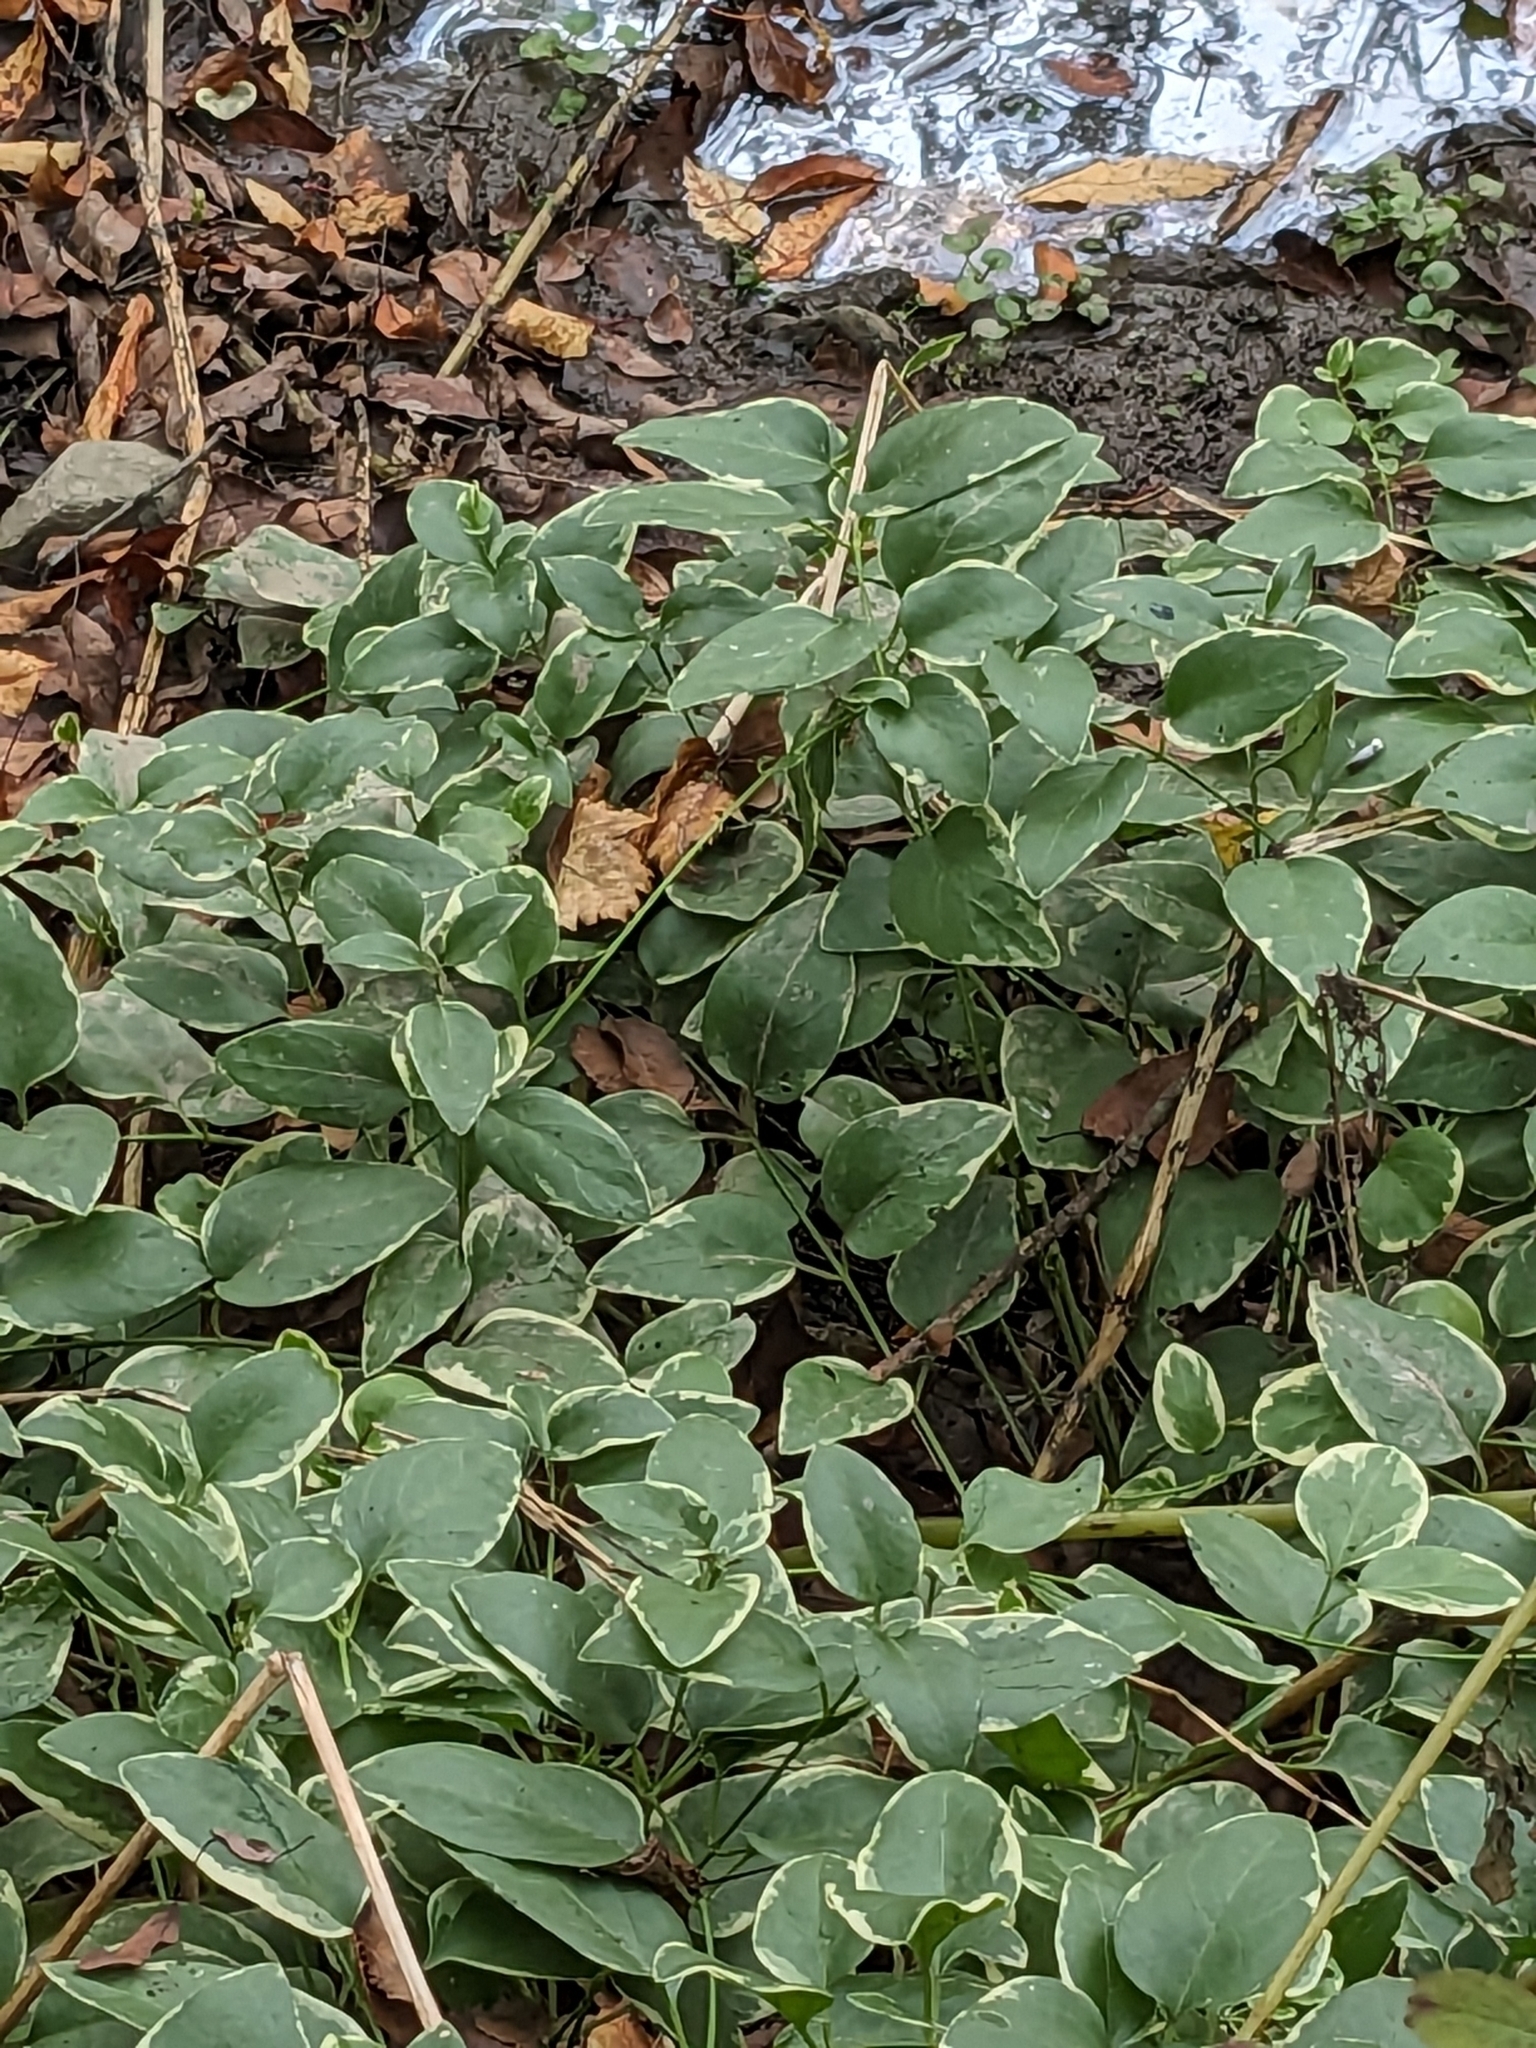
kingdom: Plantae
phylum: Tracheophyta
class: Magnoliopsida
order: Asterales
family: Asteraceae
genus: Euthamia
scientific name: Euthamia graminifolia
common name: Common goldentop
